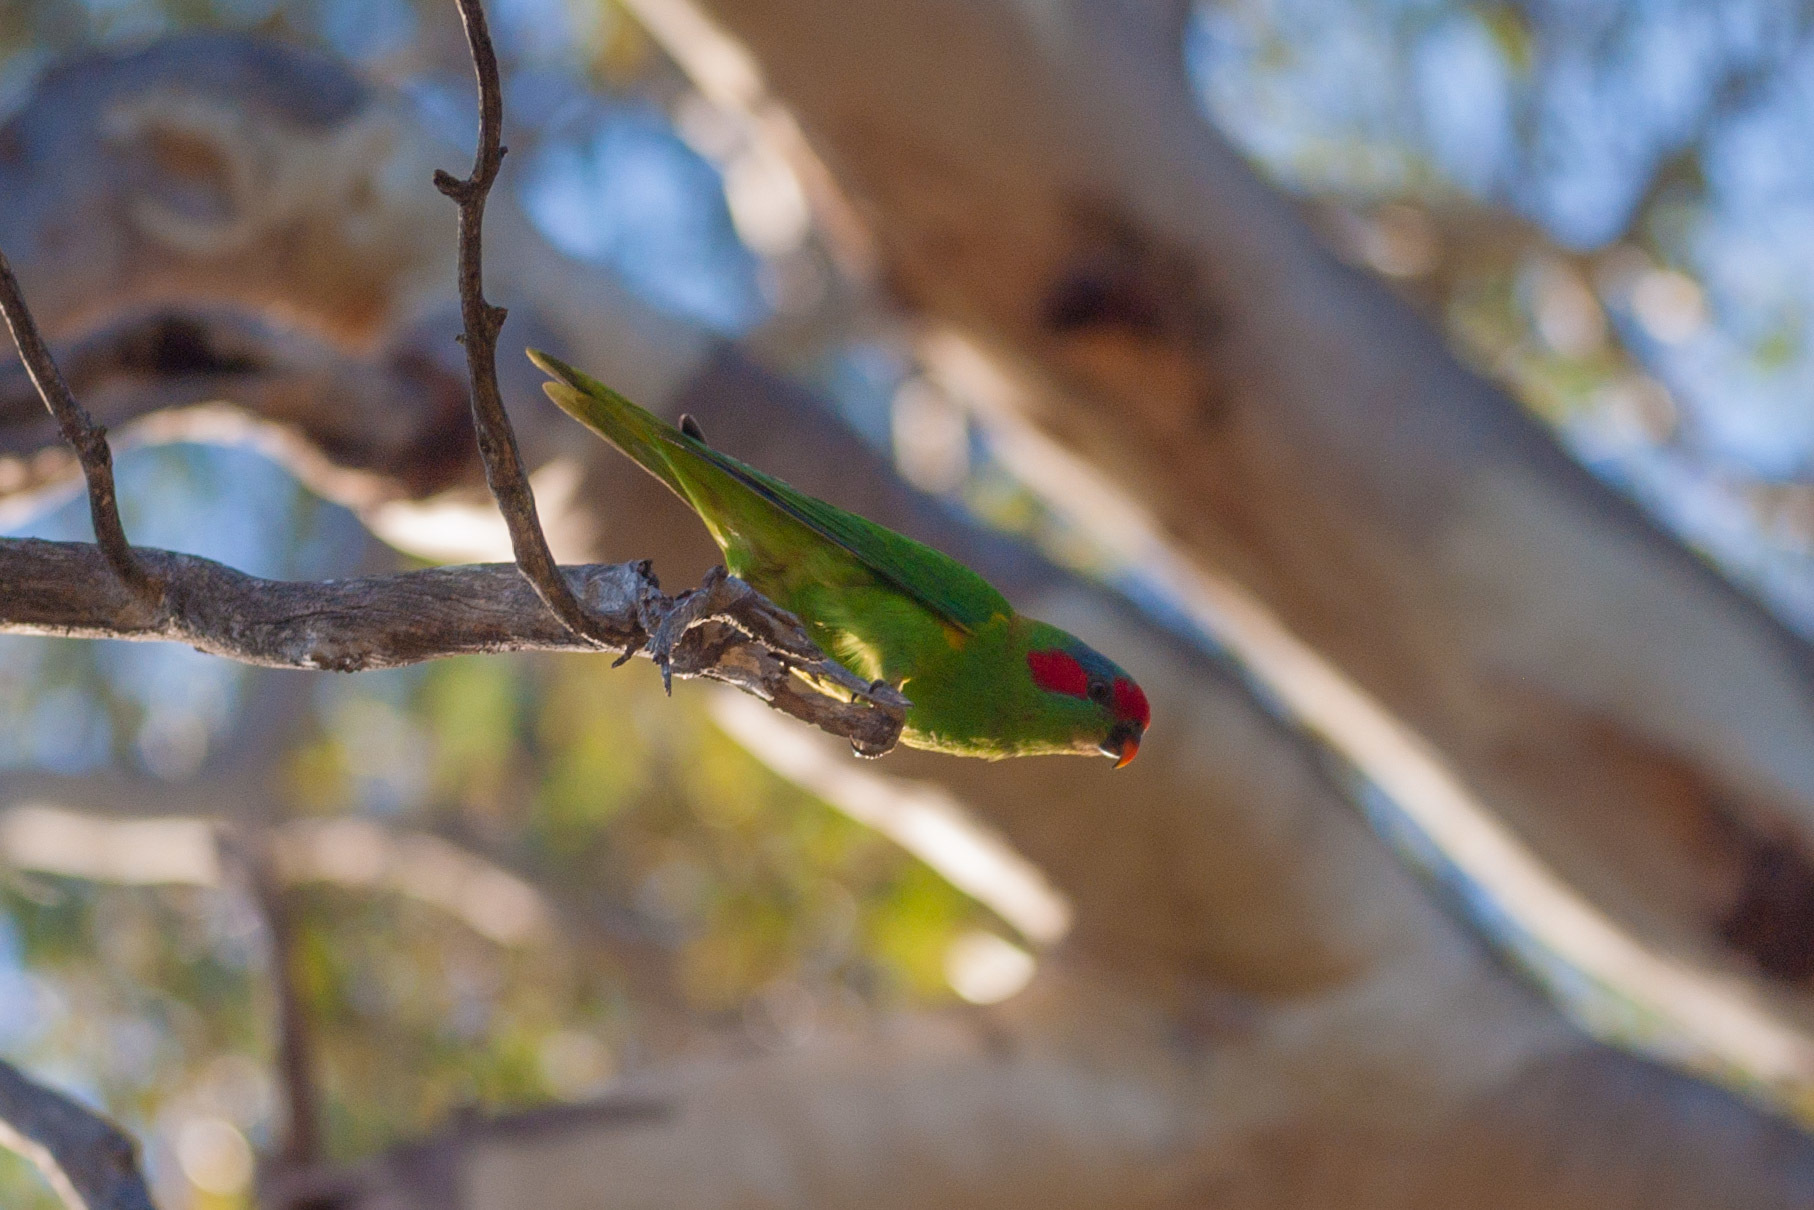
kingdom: Animalia
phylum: Chordata
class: Aves
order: Psittaciformes
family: Psittacidae
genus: Glossopsitta
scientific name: Glossopsitta concinna
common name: Musk lorikeet
